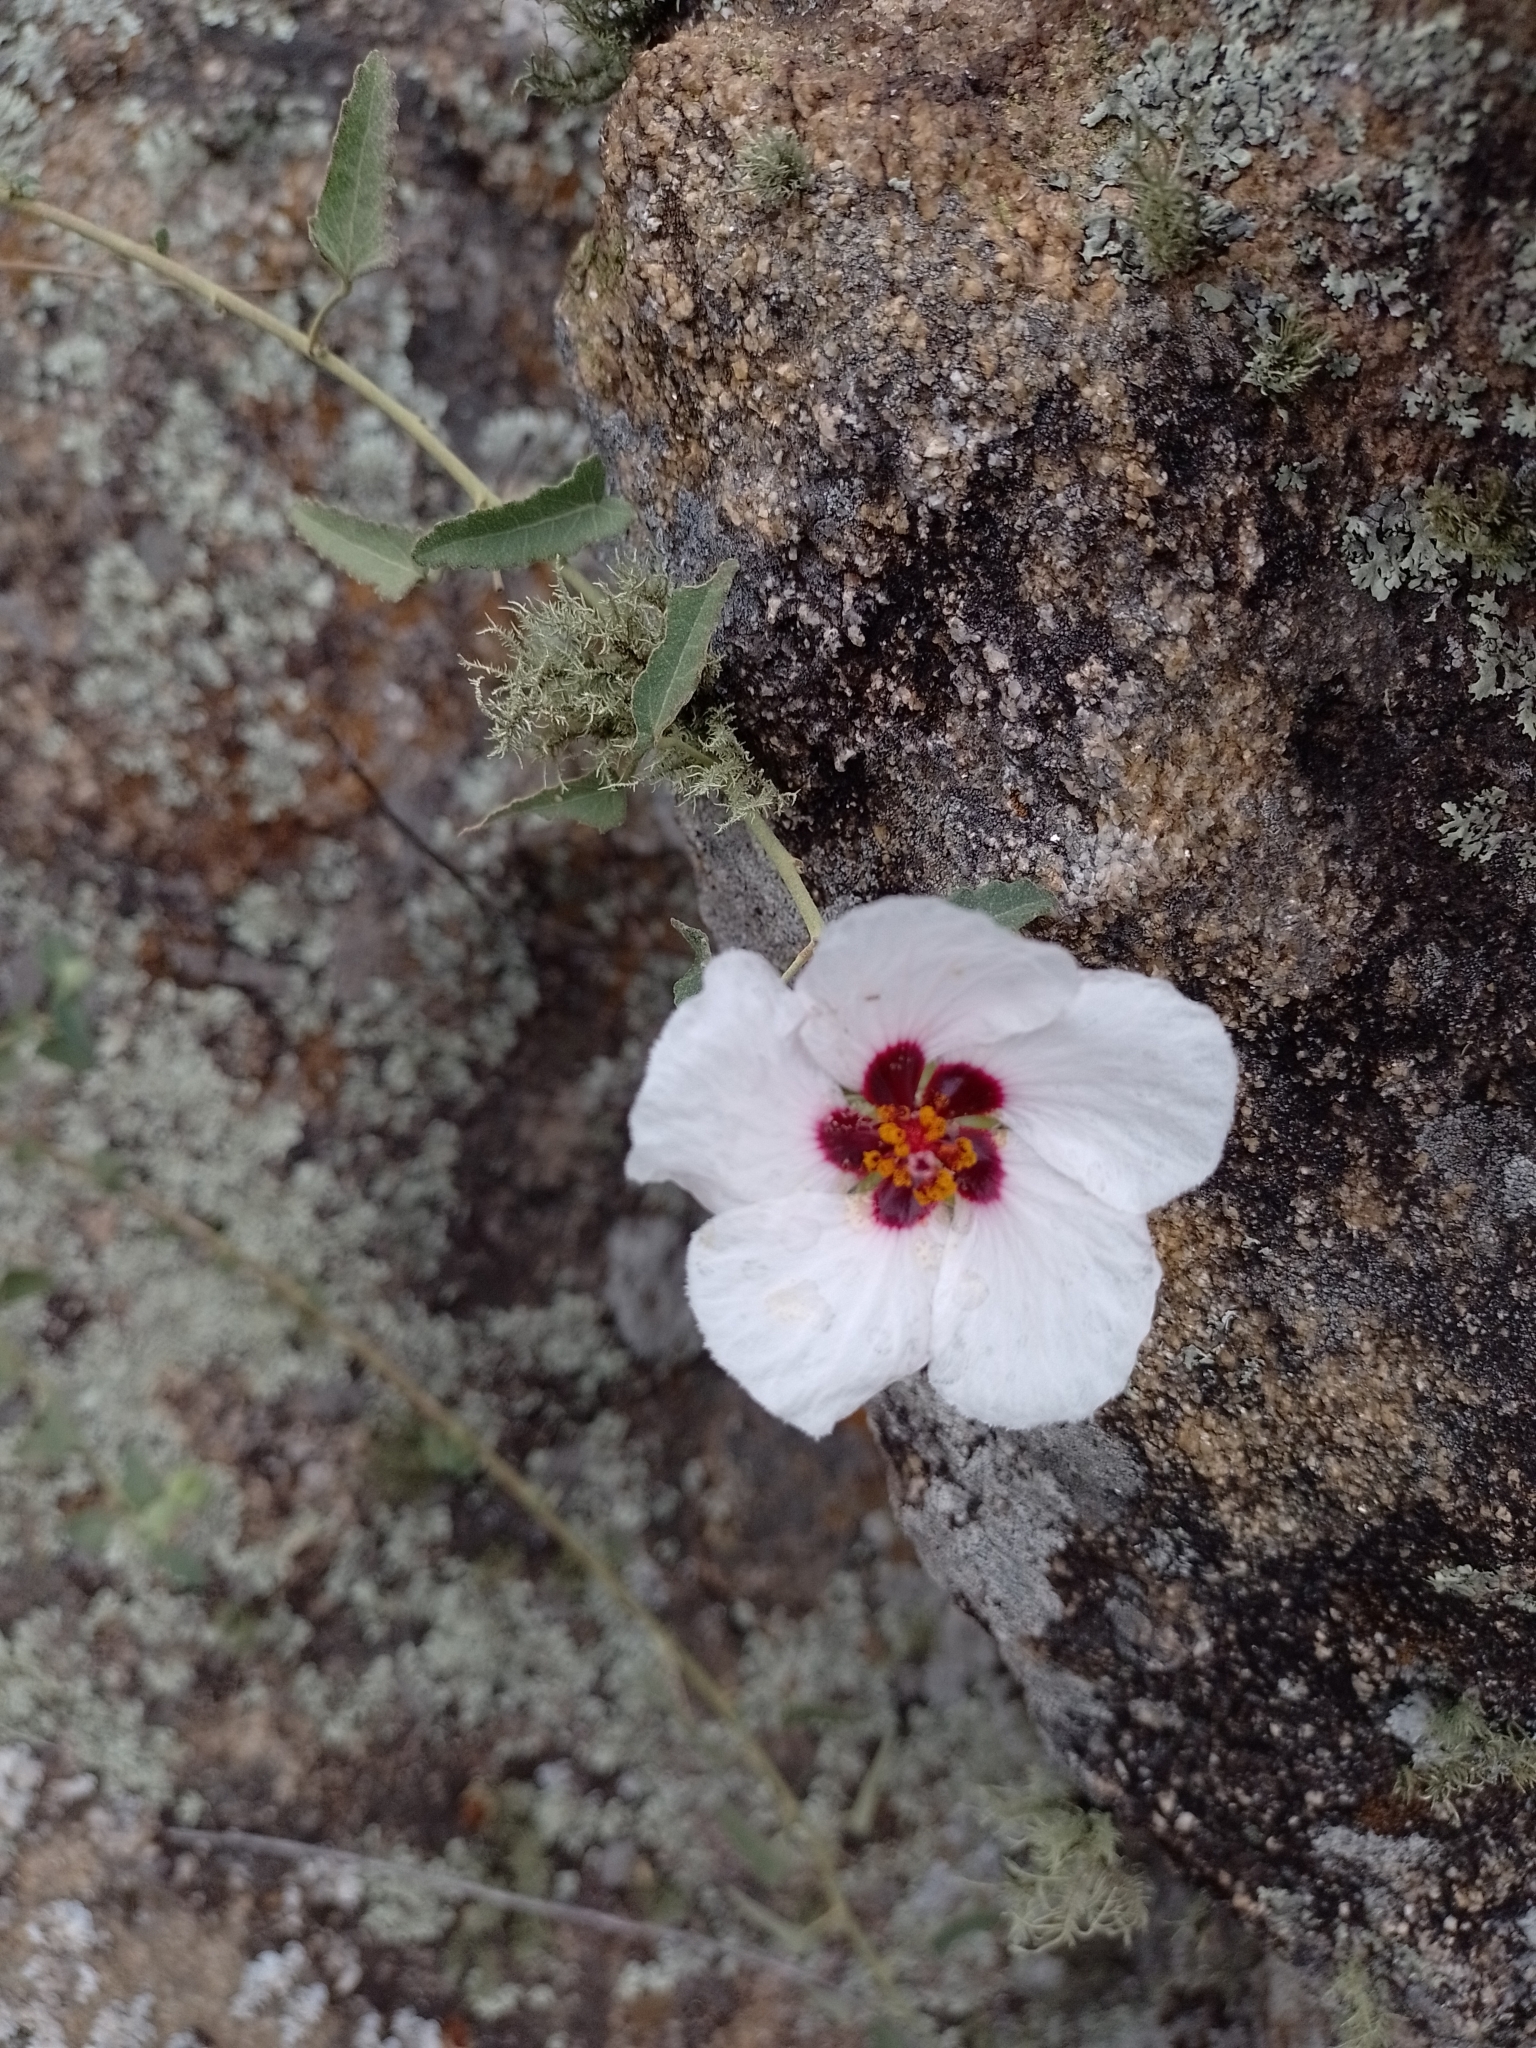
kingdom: Plantae
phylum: Tracheophyta
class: Magnoliopsida
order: Malvales
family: Malvaceae
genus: Pavonia
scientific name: Pavonia aurigloba
